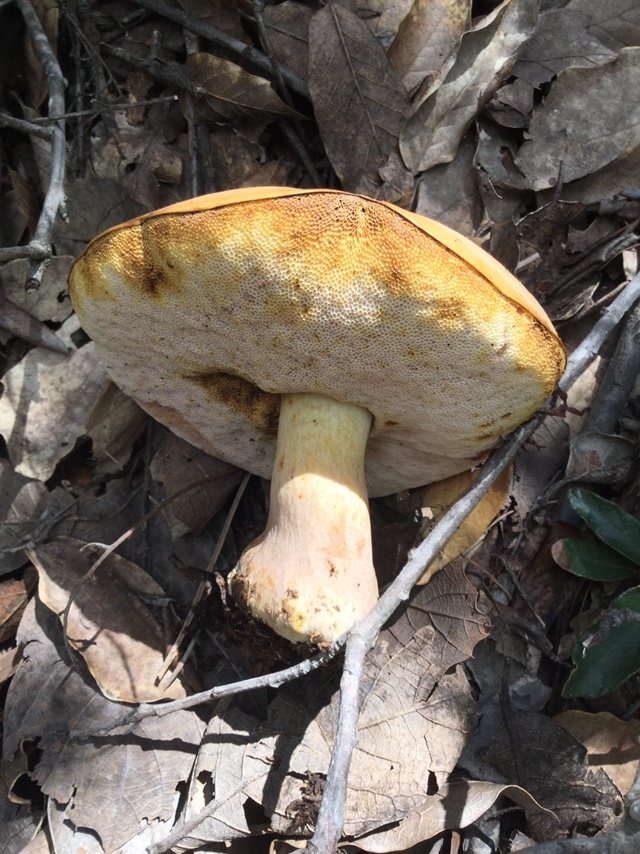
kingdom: Fungi
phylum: Basidiomycota
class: Agaricomycetes
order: Boletales
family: Boletaceae
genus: Fistulinella
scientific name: Fistulinella wolfeana
